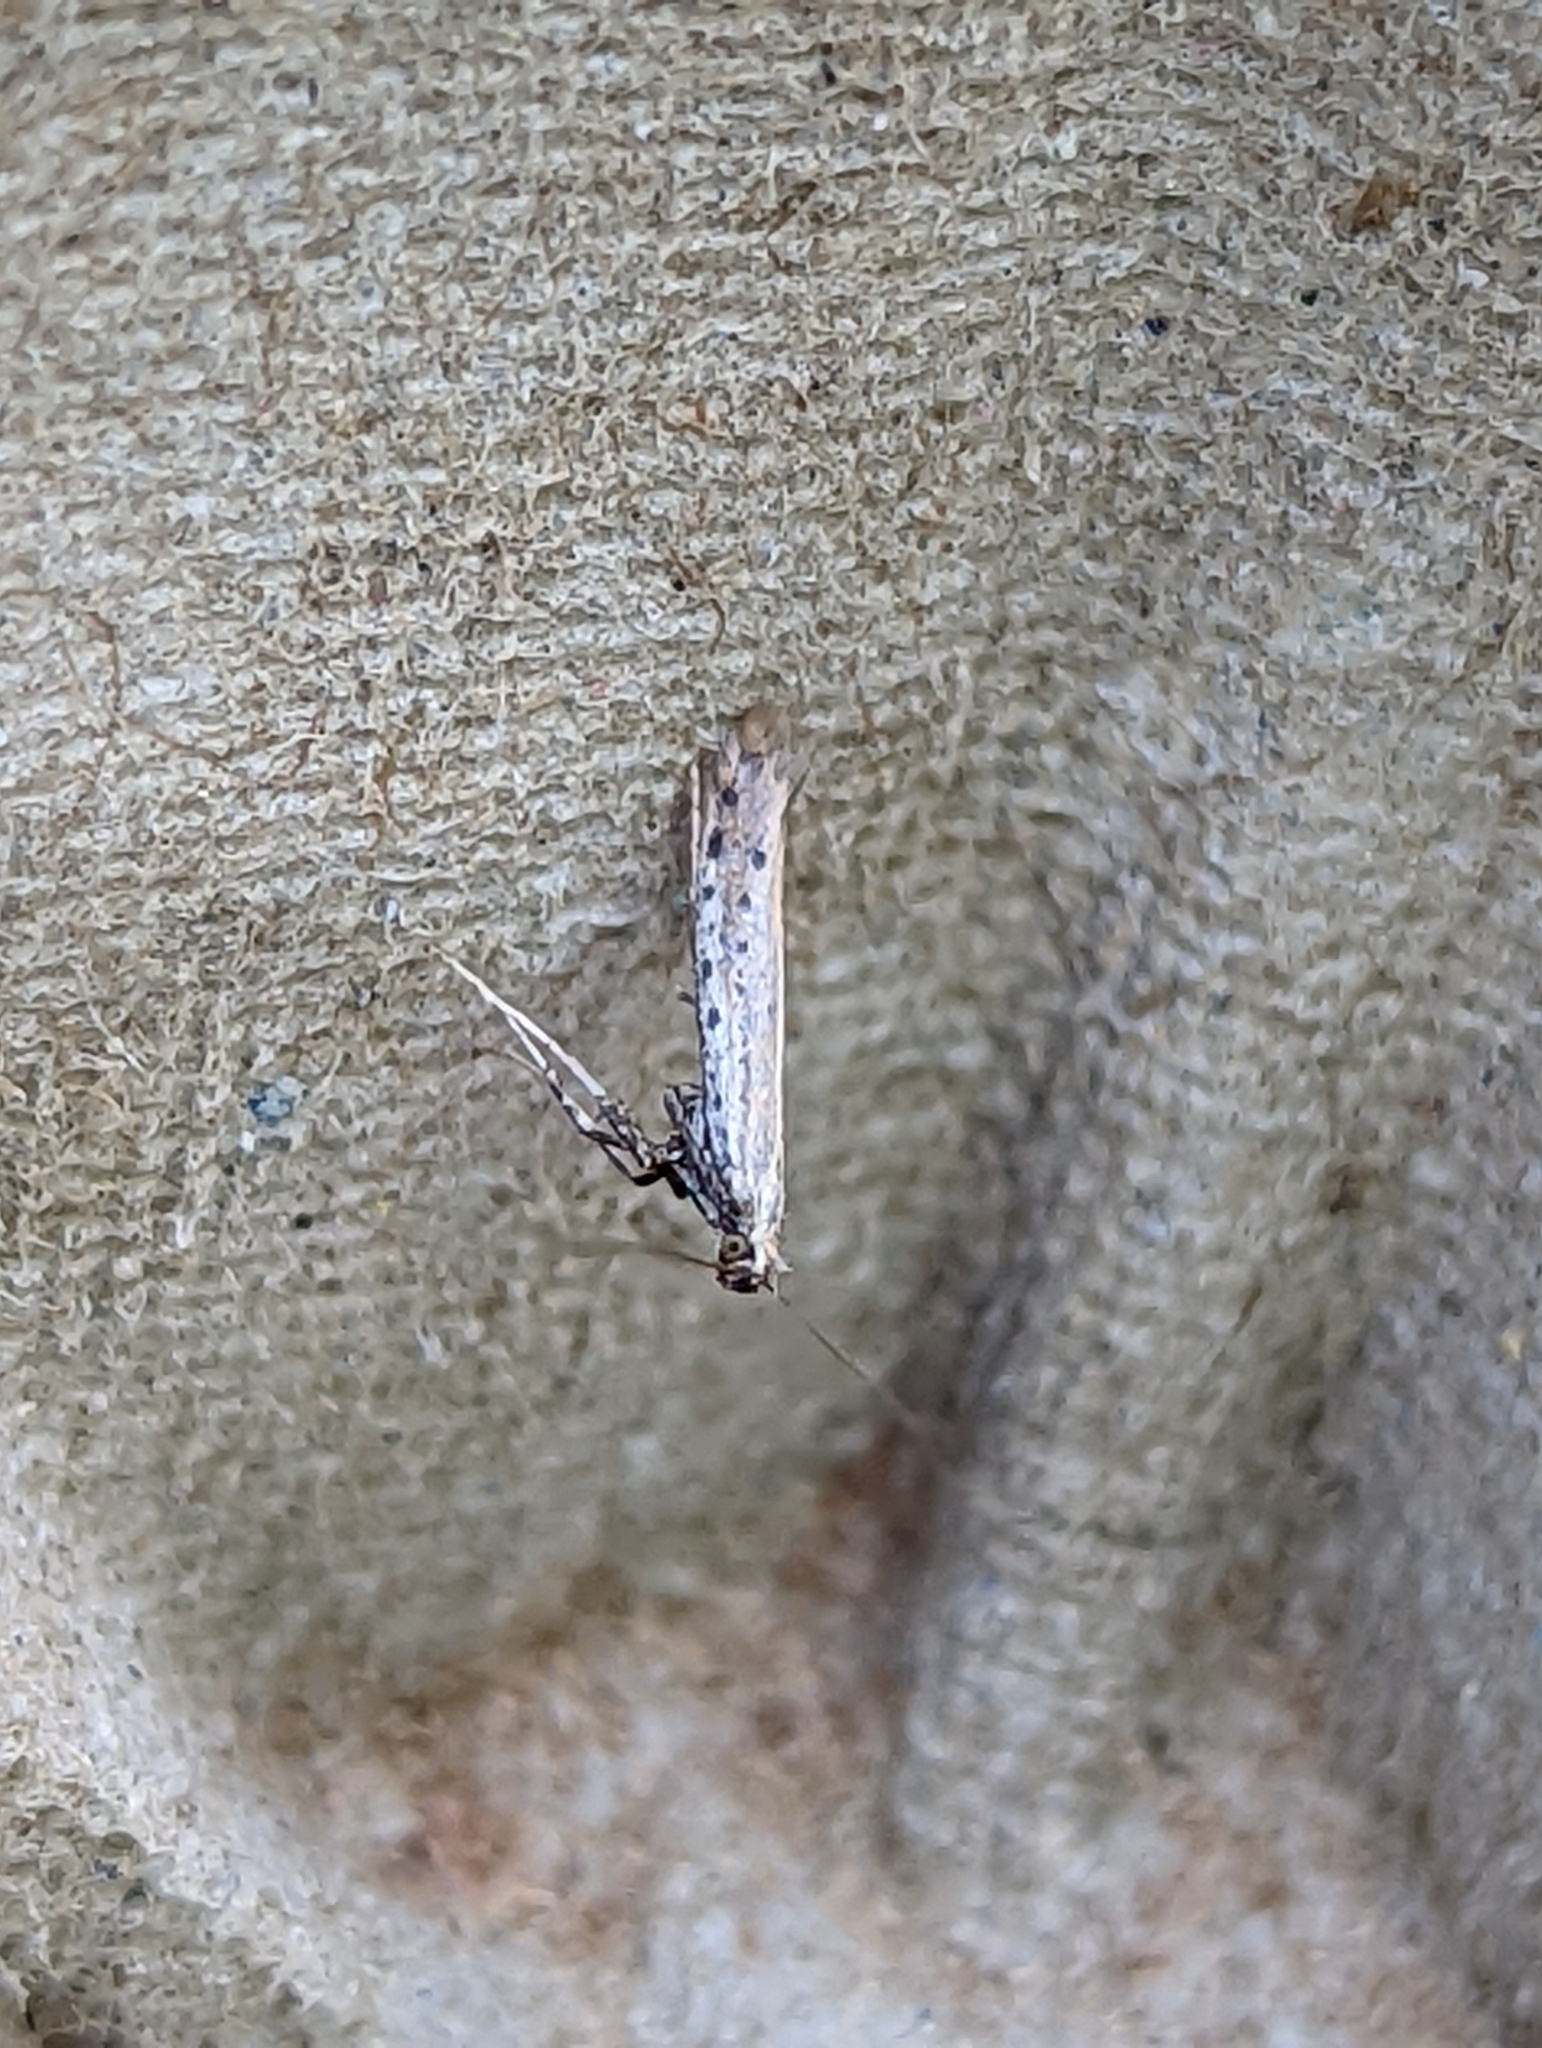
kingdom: Animalia
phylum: Arthropoda
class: Insecta
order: Lepidoptera
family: Gracillariidae
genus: Aspilapteryx
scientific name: Aspilapteryx tringipennella
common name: Ribwort slender
